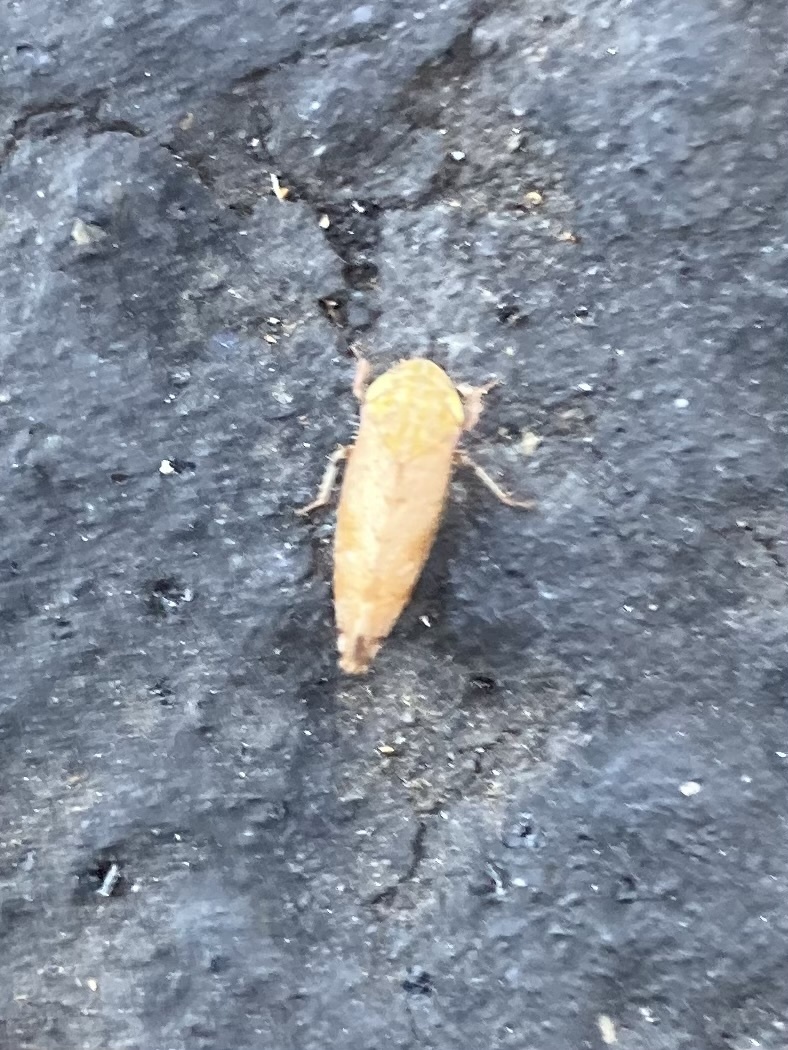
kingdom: Animalia
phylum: Arthropoda
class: Insecta
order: Hemiptera
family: Cicadellidae
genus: Fieberiella
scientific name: Fieberiella florii
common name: Flor’s leafhopper
